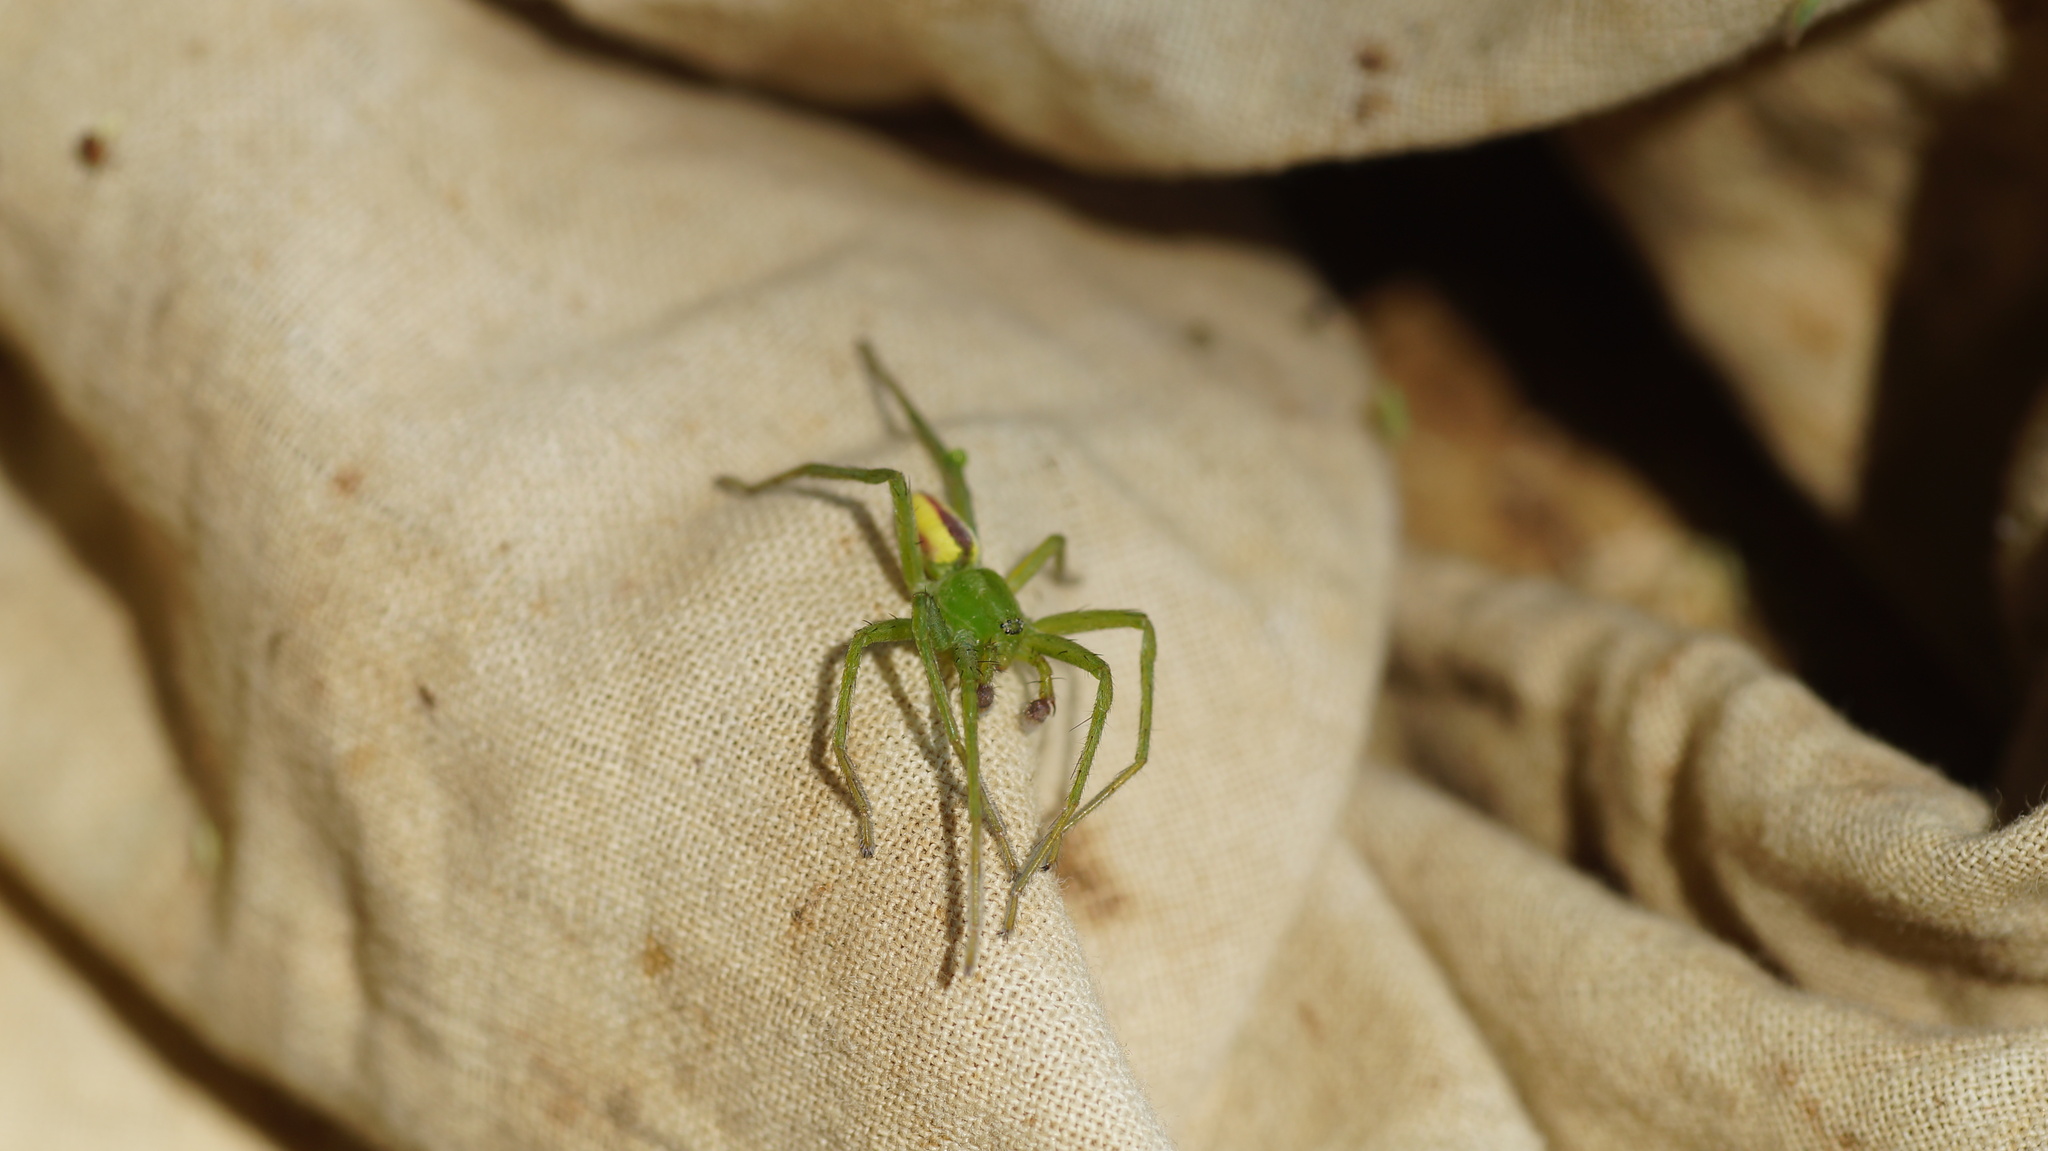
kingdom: Animalia
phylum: Arthropoda
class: Arachnida
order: Araneae
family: Sparassidae
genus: Micrommata
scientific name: Micrommata virescens
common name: Green spider
